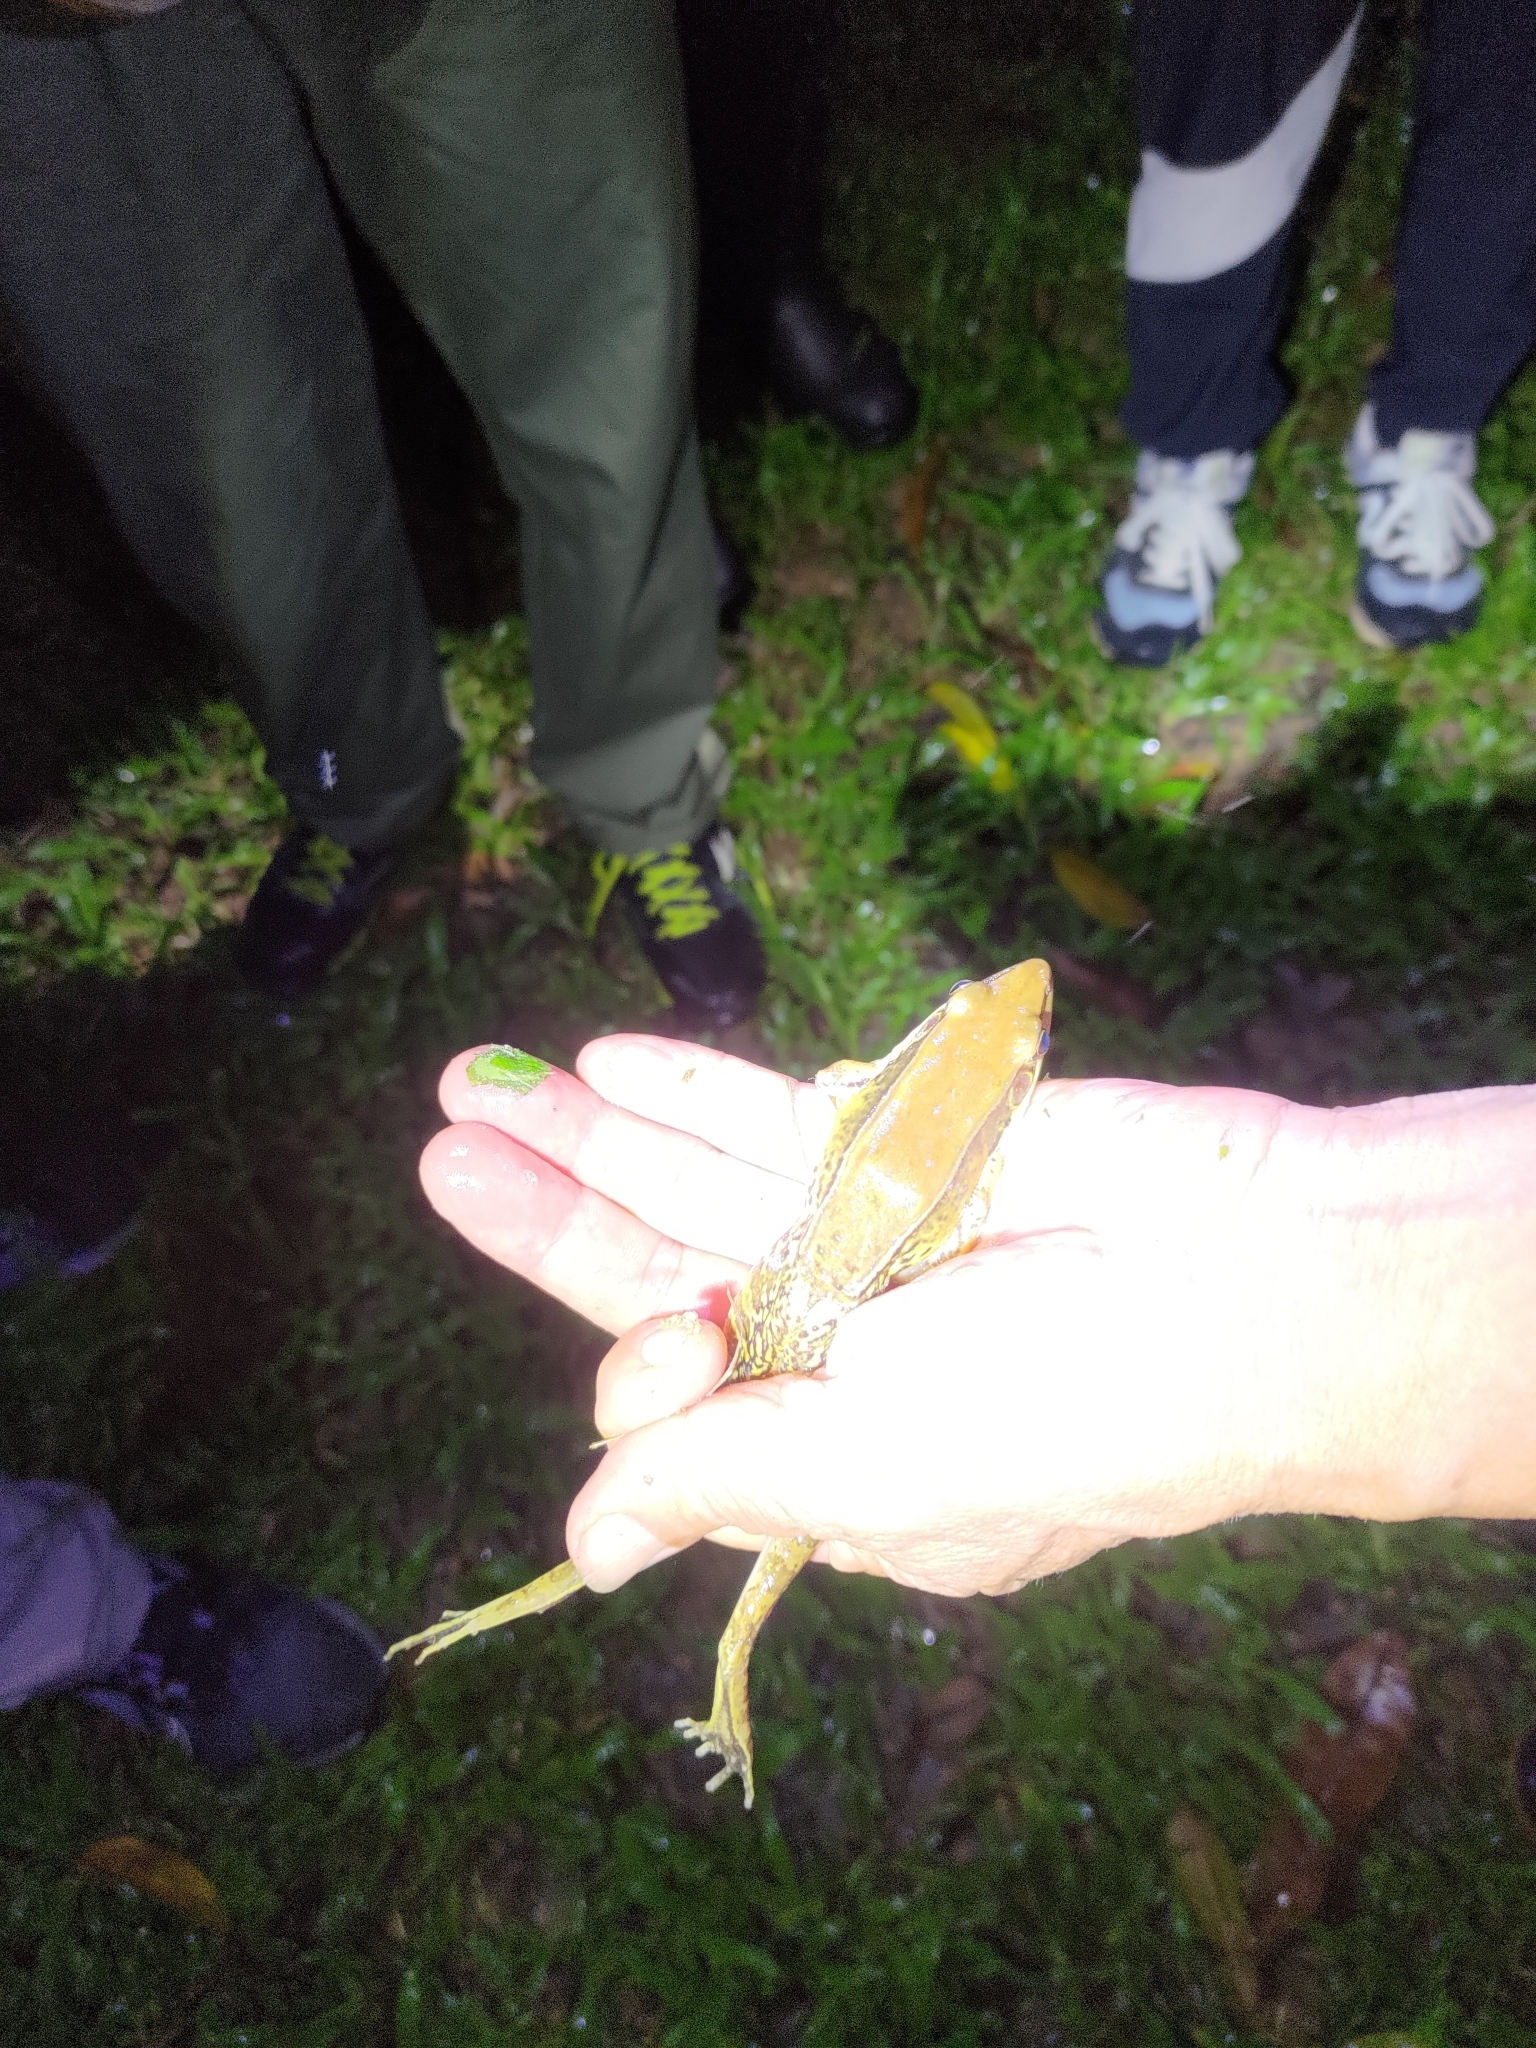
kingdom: Animalia
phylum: Chordata
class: Amphibia
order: Anura
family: Ranidae
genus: Sylvirana
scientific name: Sylvirana guentheri
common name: Guenther's amoy frog
